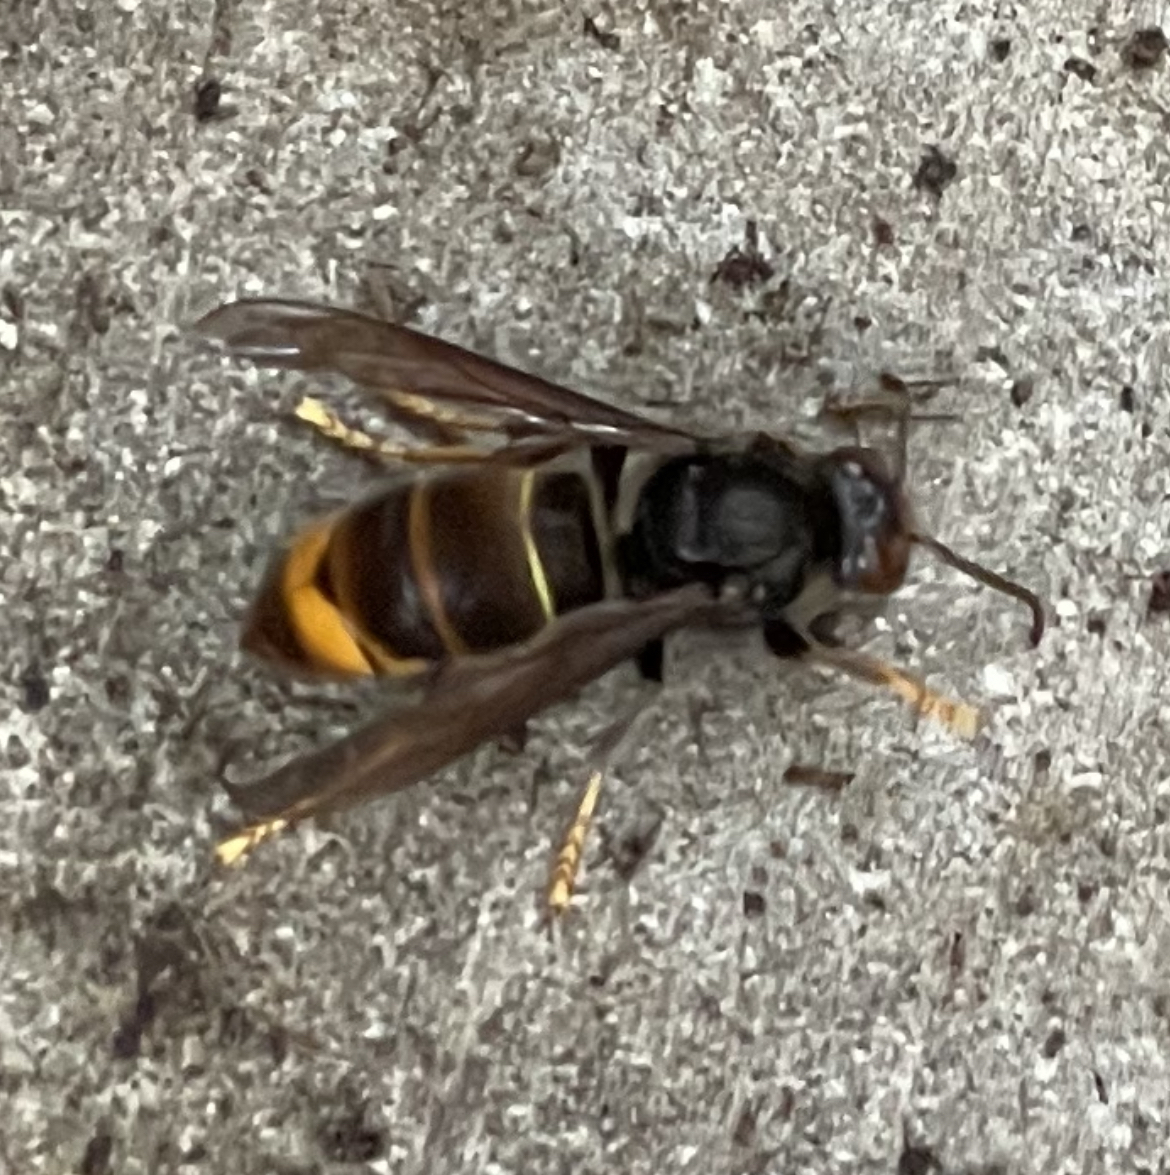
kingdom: Animalia
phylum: Arthropoda
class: Insecta
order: Hymenoptera
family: Vespidae
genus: Vespa
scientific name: Vespa velutina
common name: Asian hornet
